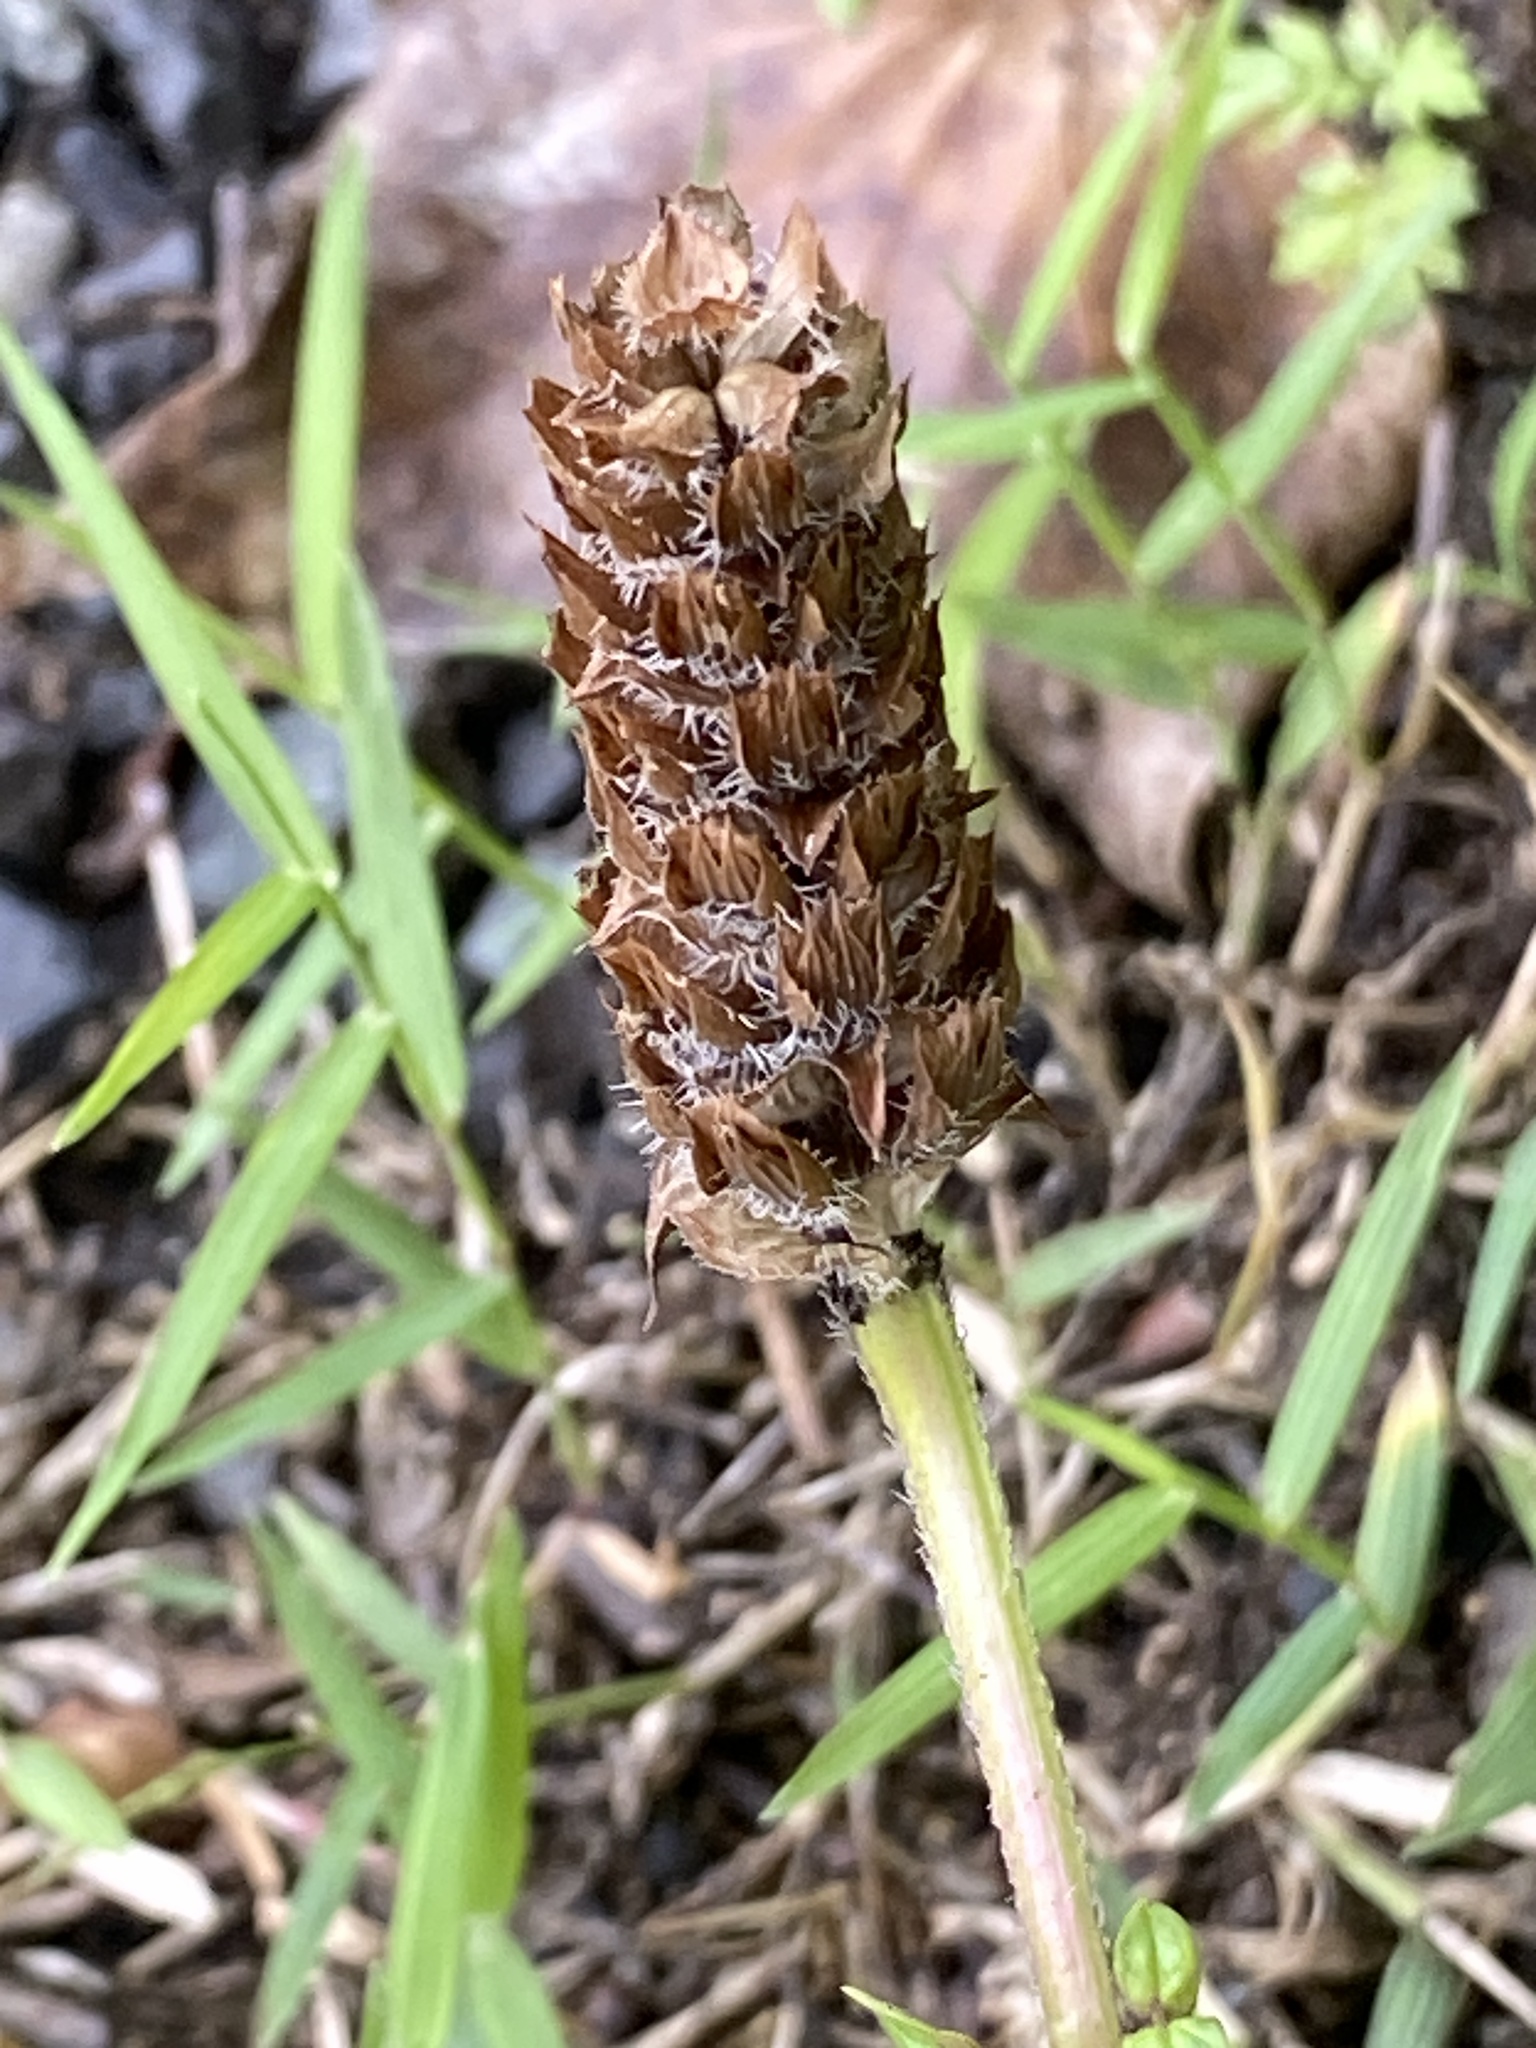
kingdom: Plantae
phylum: Tracheophyta
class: Magnoliopsida
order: Lamiales
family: Lamiaceae
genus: Prunella
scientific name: Prunella vulgaris
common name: Heal-all
